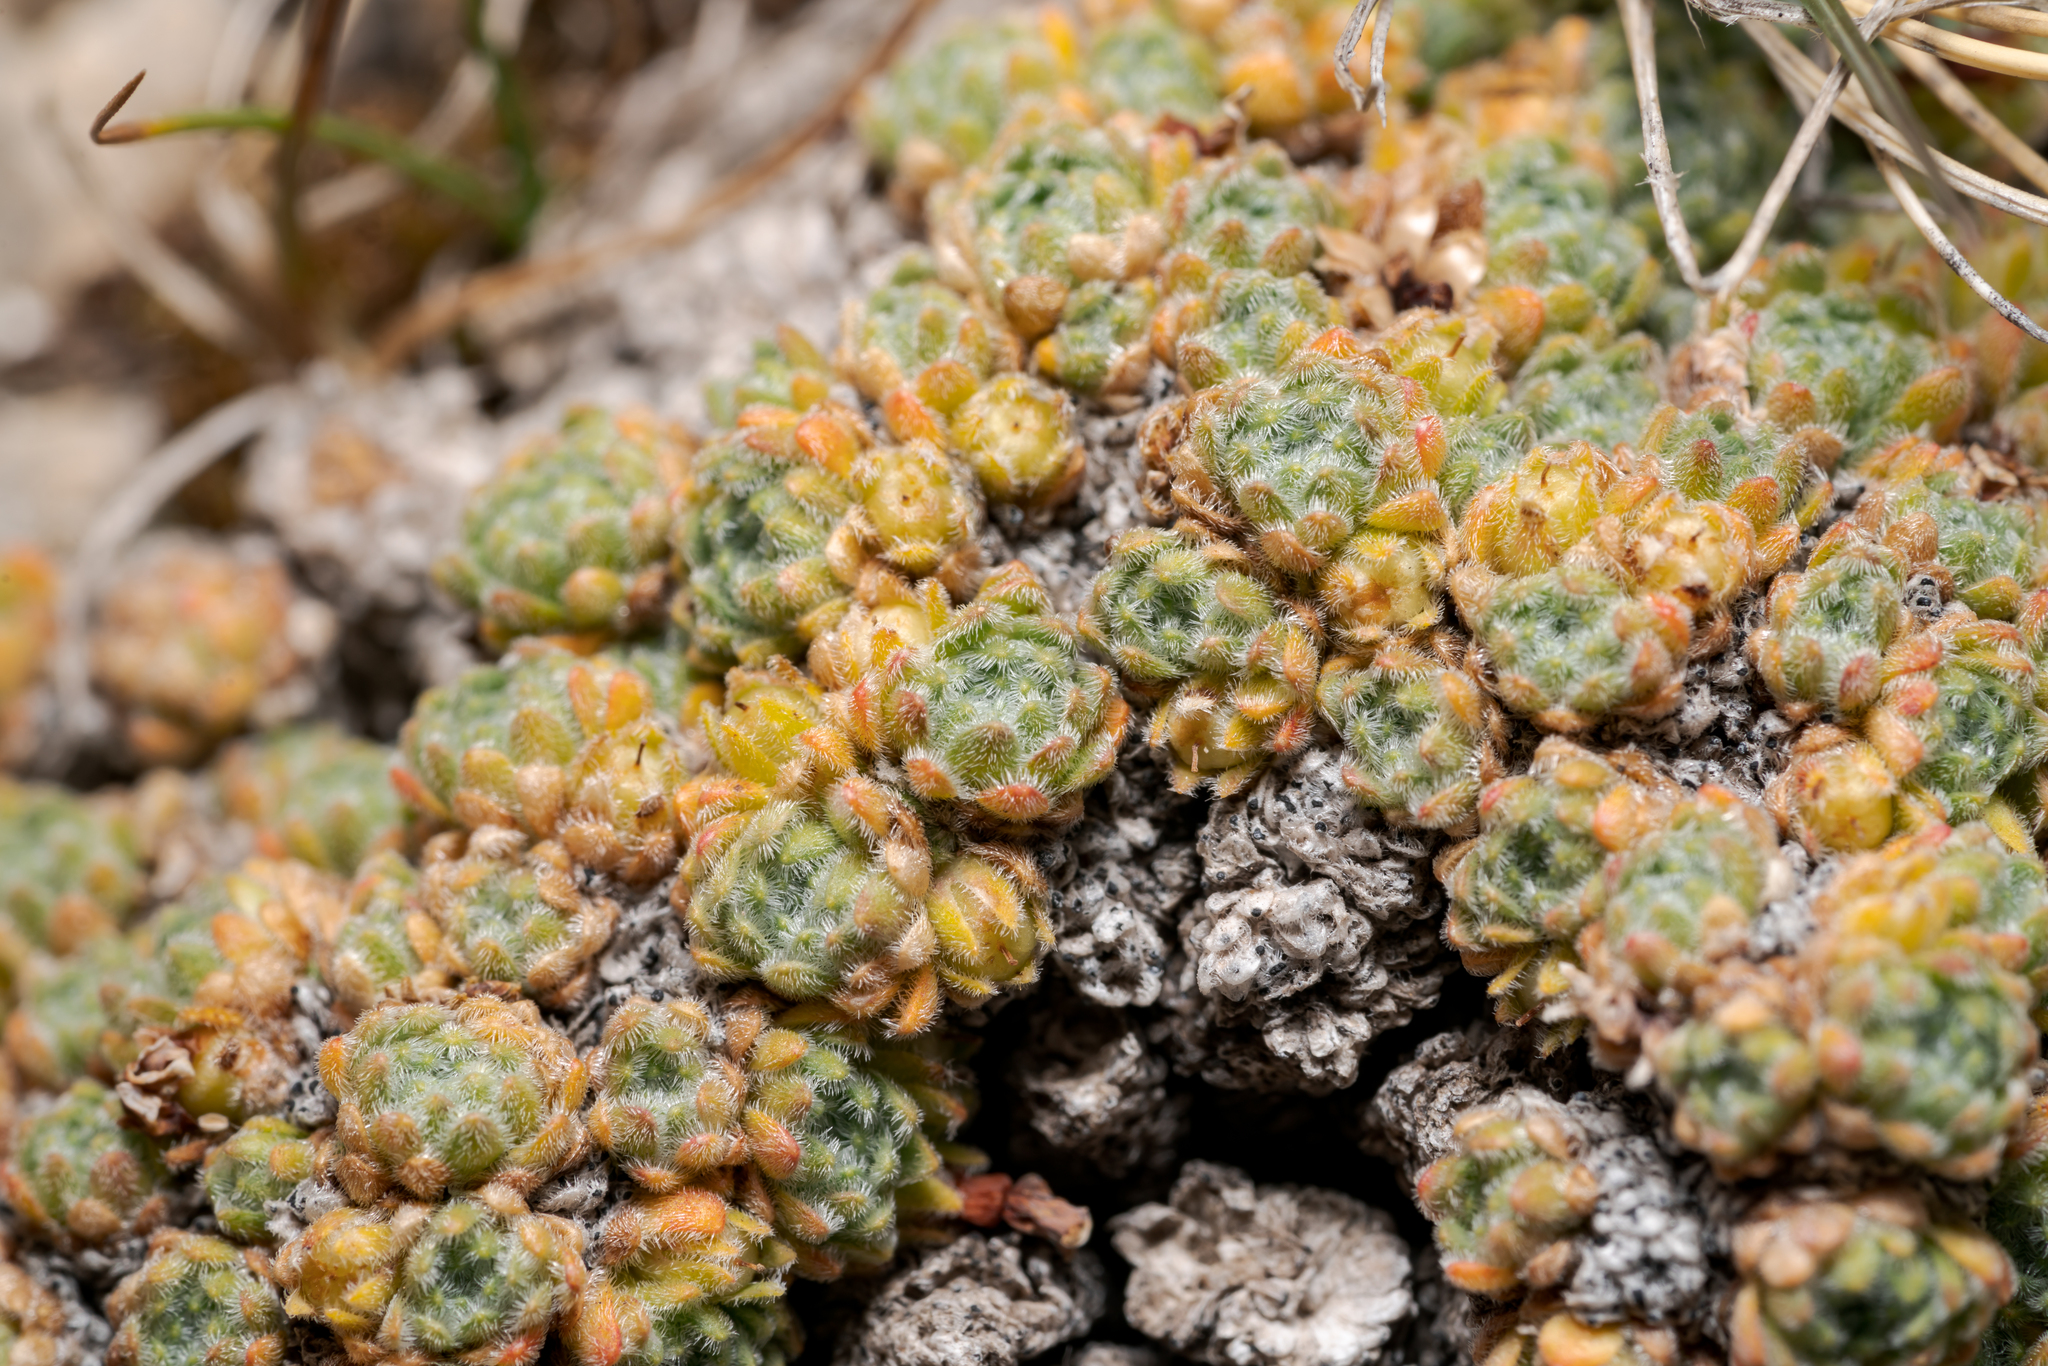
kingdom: Plantae
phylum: Tracheophyta
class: Magnoliopsida
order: Ericales
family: Primulaceae
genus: Androsace
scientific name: Androsace helvetica
